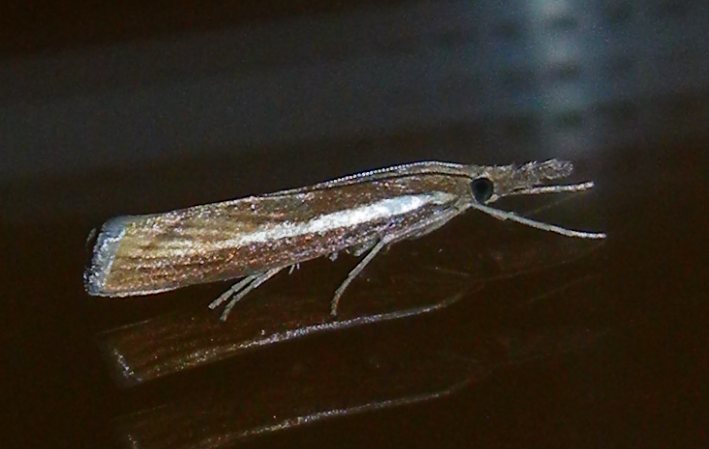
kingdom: Animalia
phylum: Arthropoda
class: Insecta
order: Lepidoptera
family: Crambidae
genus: Agriphila
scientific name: Agriphila selasella
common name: Pale-streak grass-veneer
